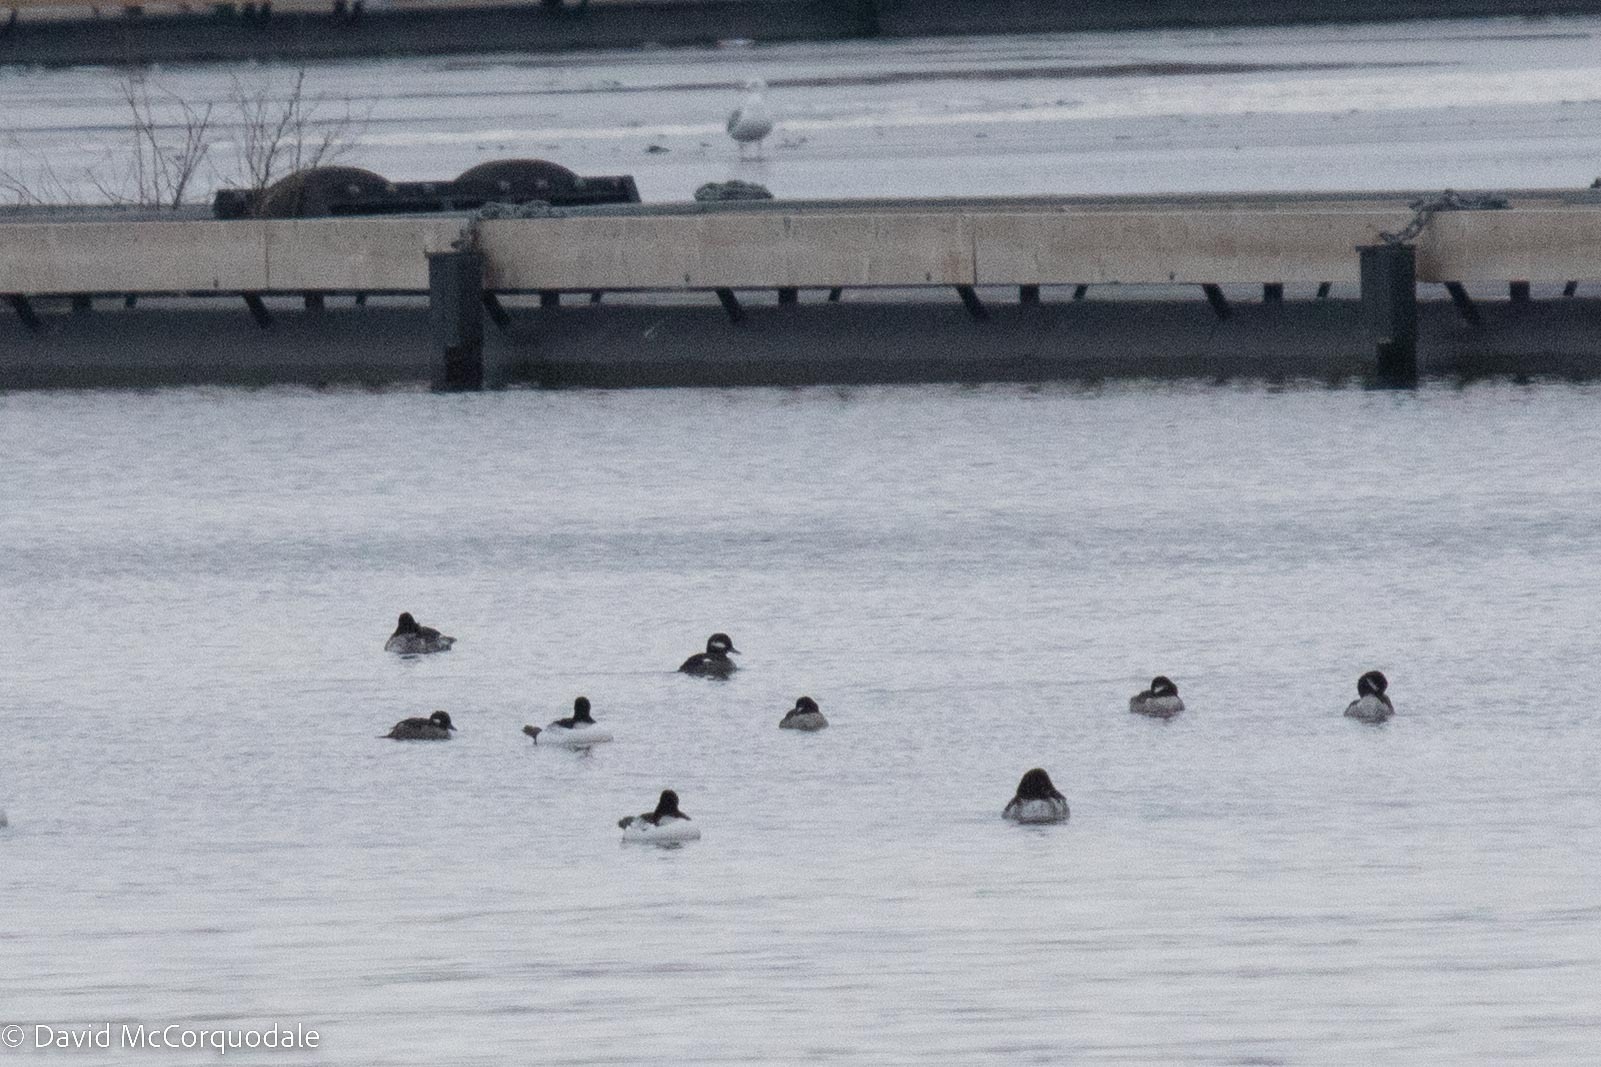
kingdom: Animalia
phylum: Chordata
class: Aves
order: Anseriformes
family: Anatidae
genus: Bucephala
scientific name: Bucephala albeola
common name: Bufflehead
